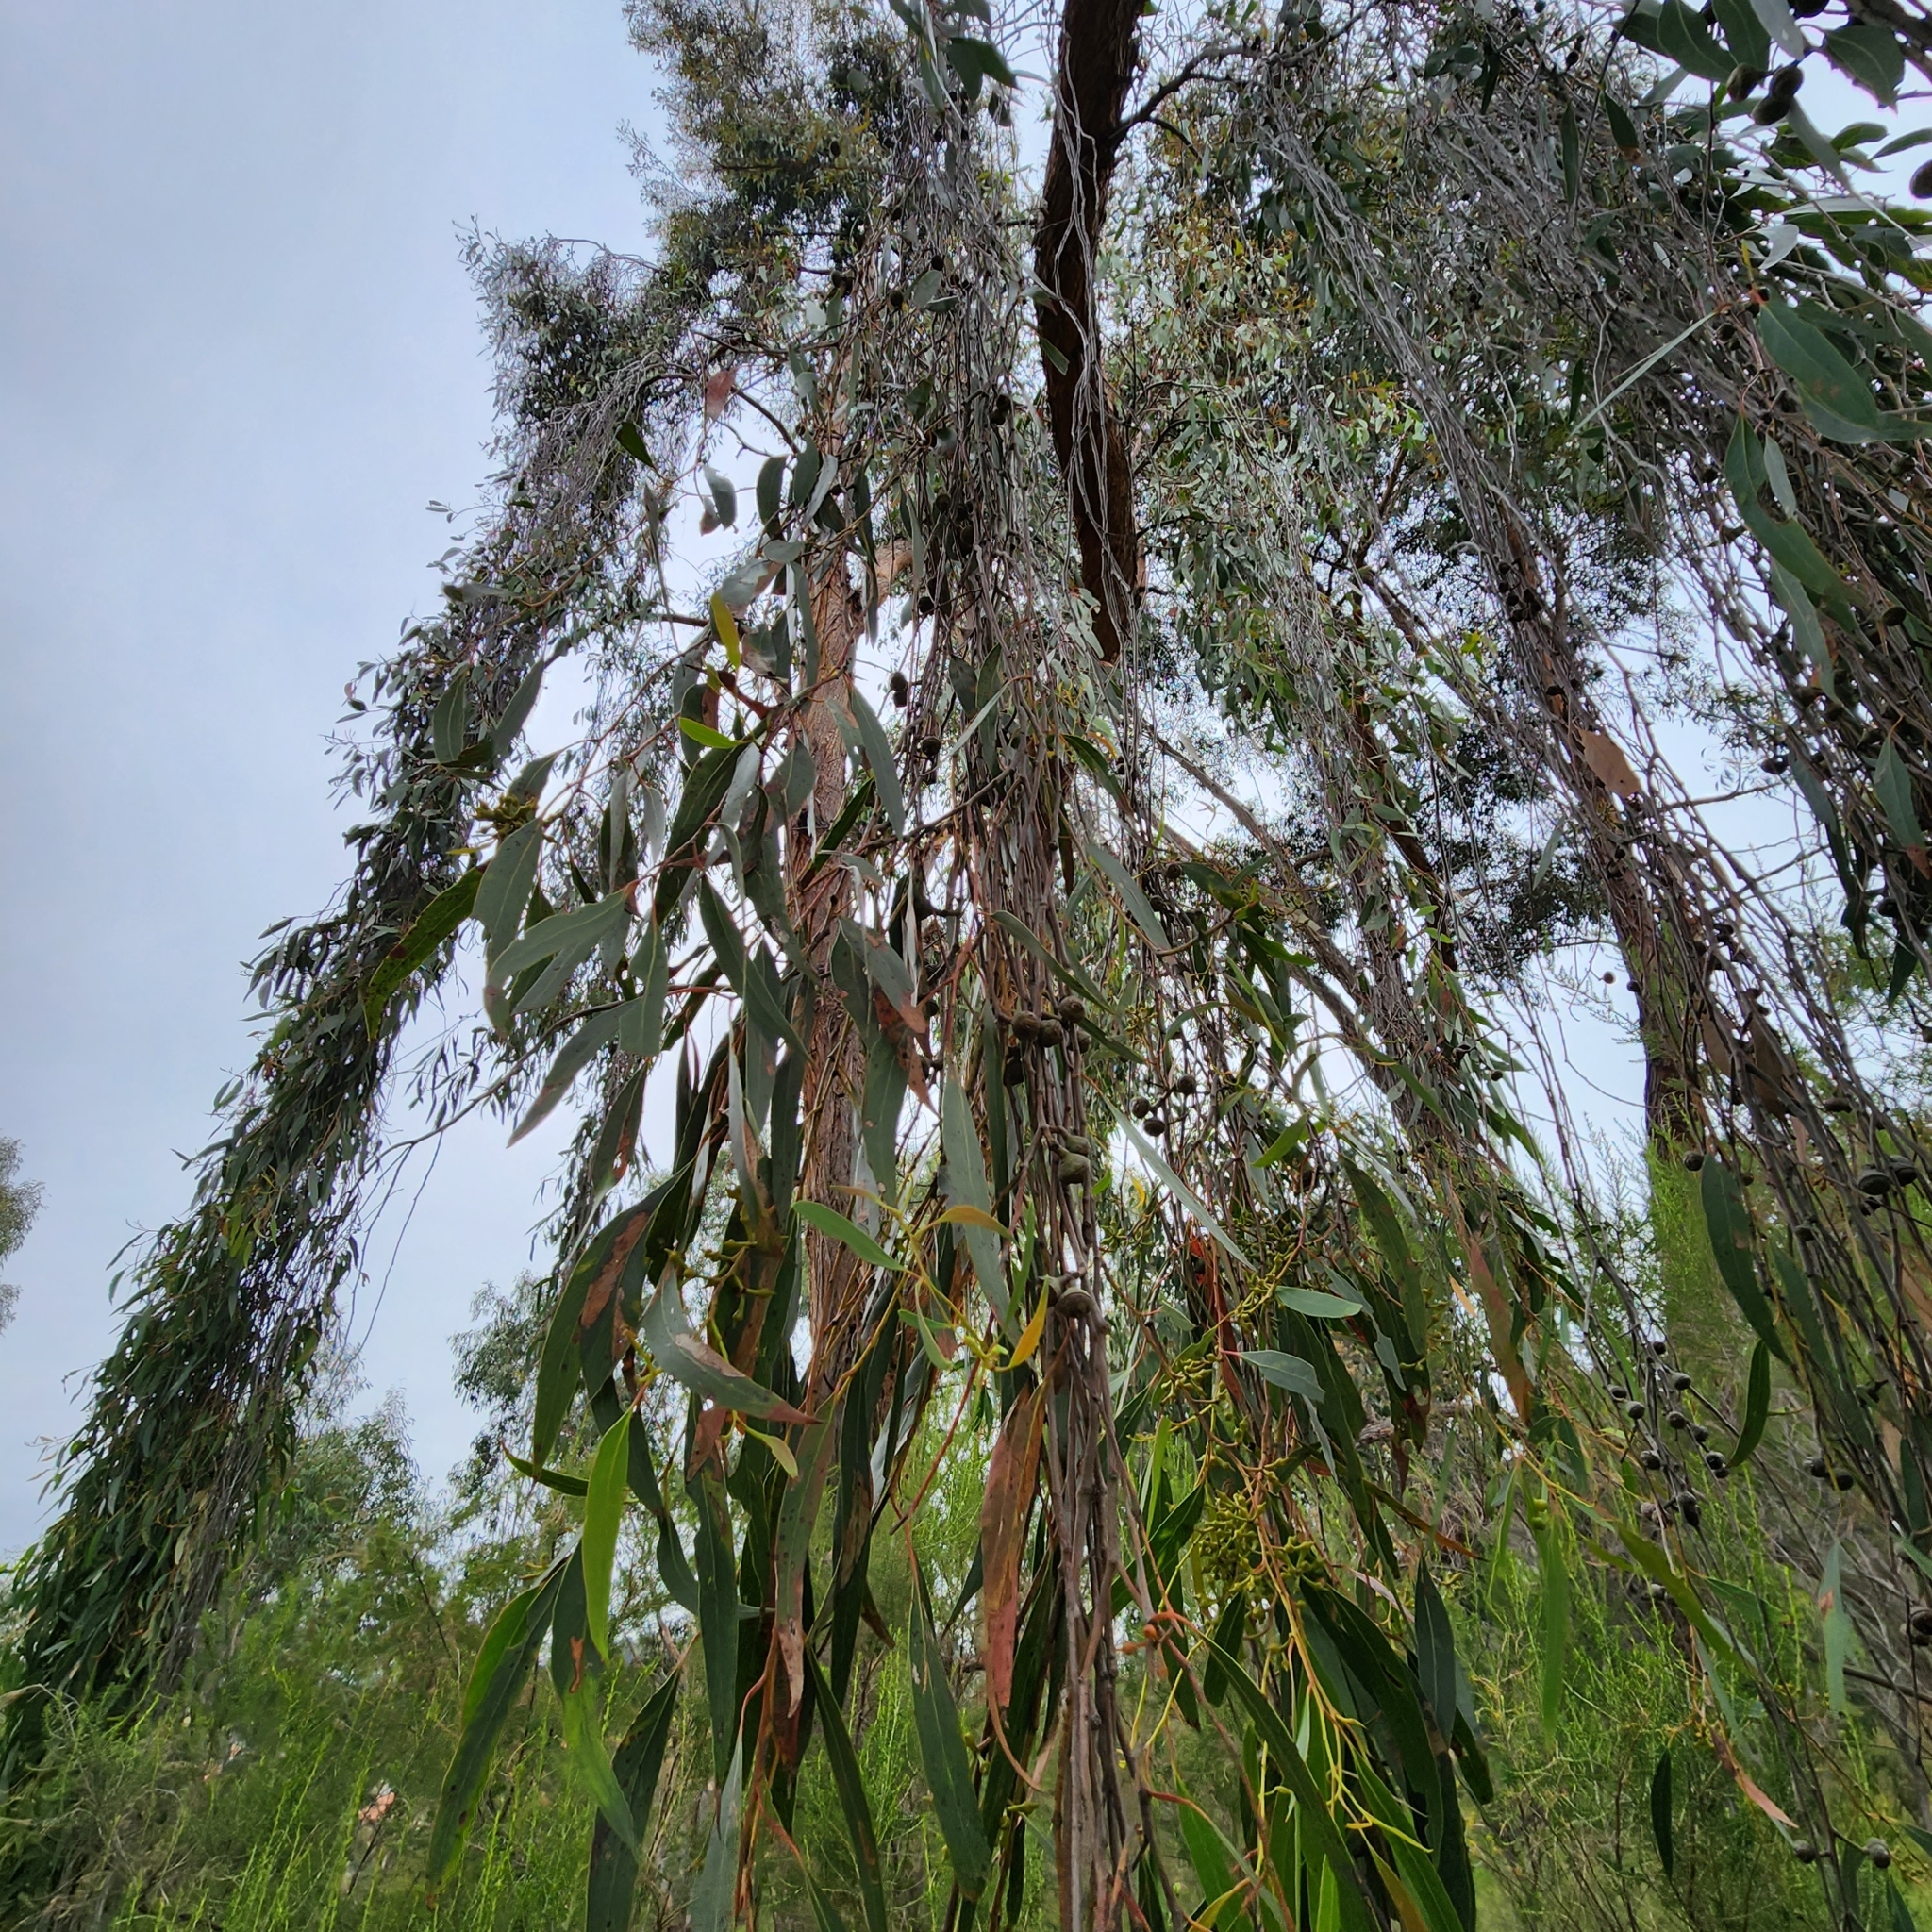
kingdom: Plantae
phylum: Tracheophyta
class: Magnoliopsida
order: Myrtales
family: Myrtaceae
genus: Eucalyptus
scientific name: Eucalyptus macrorhyncha
